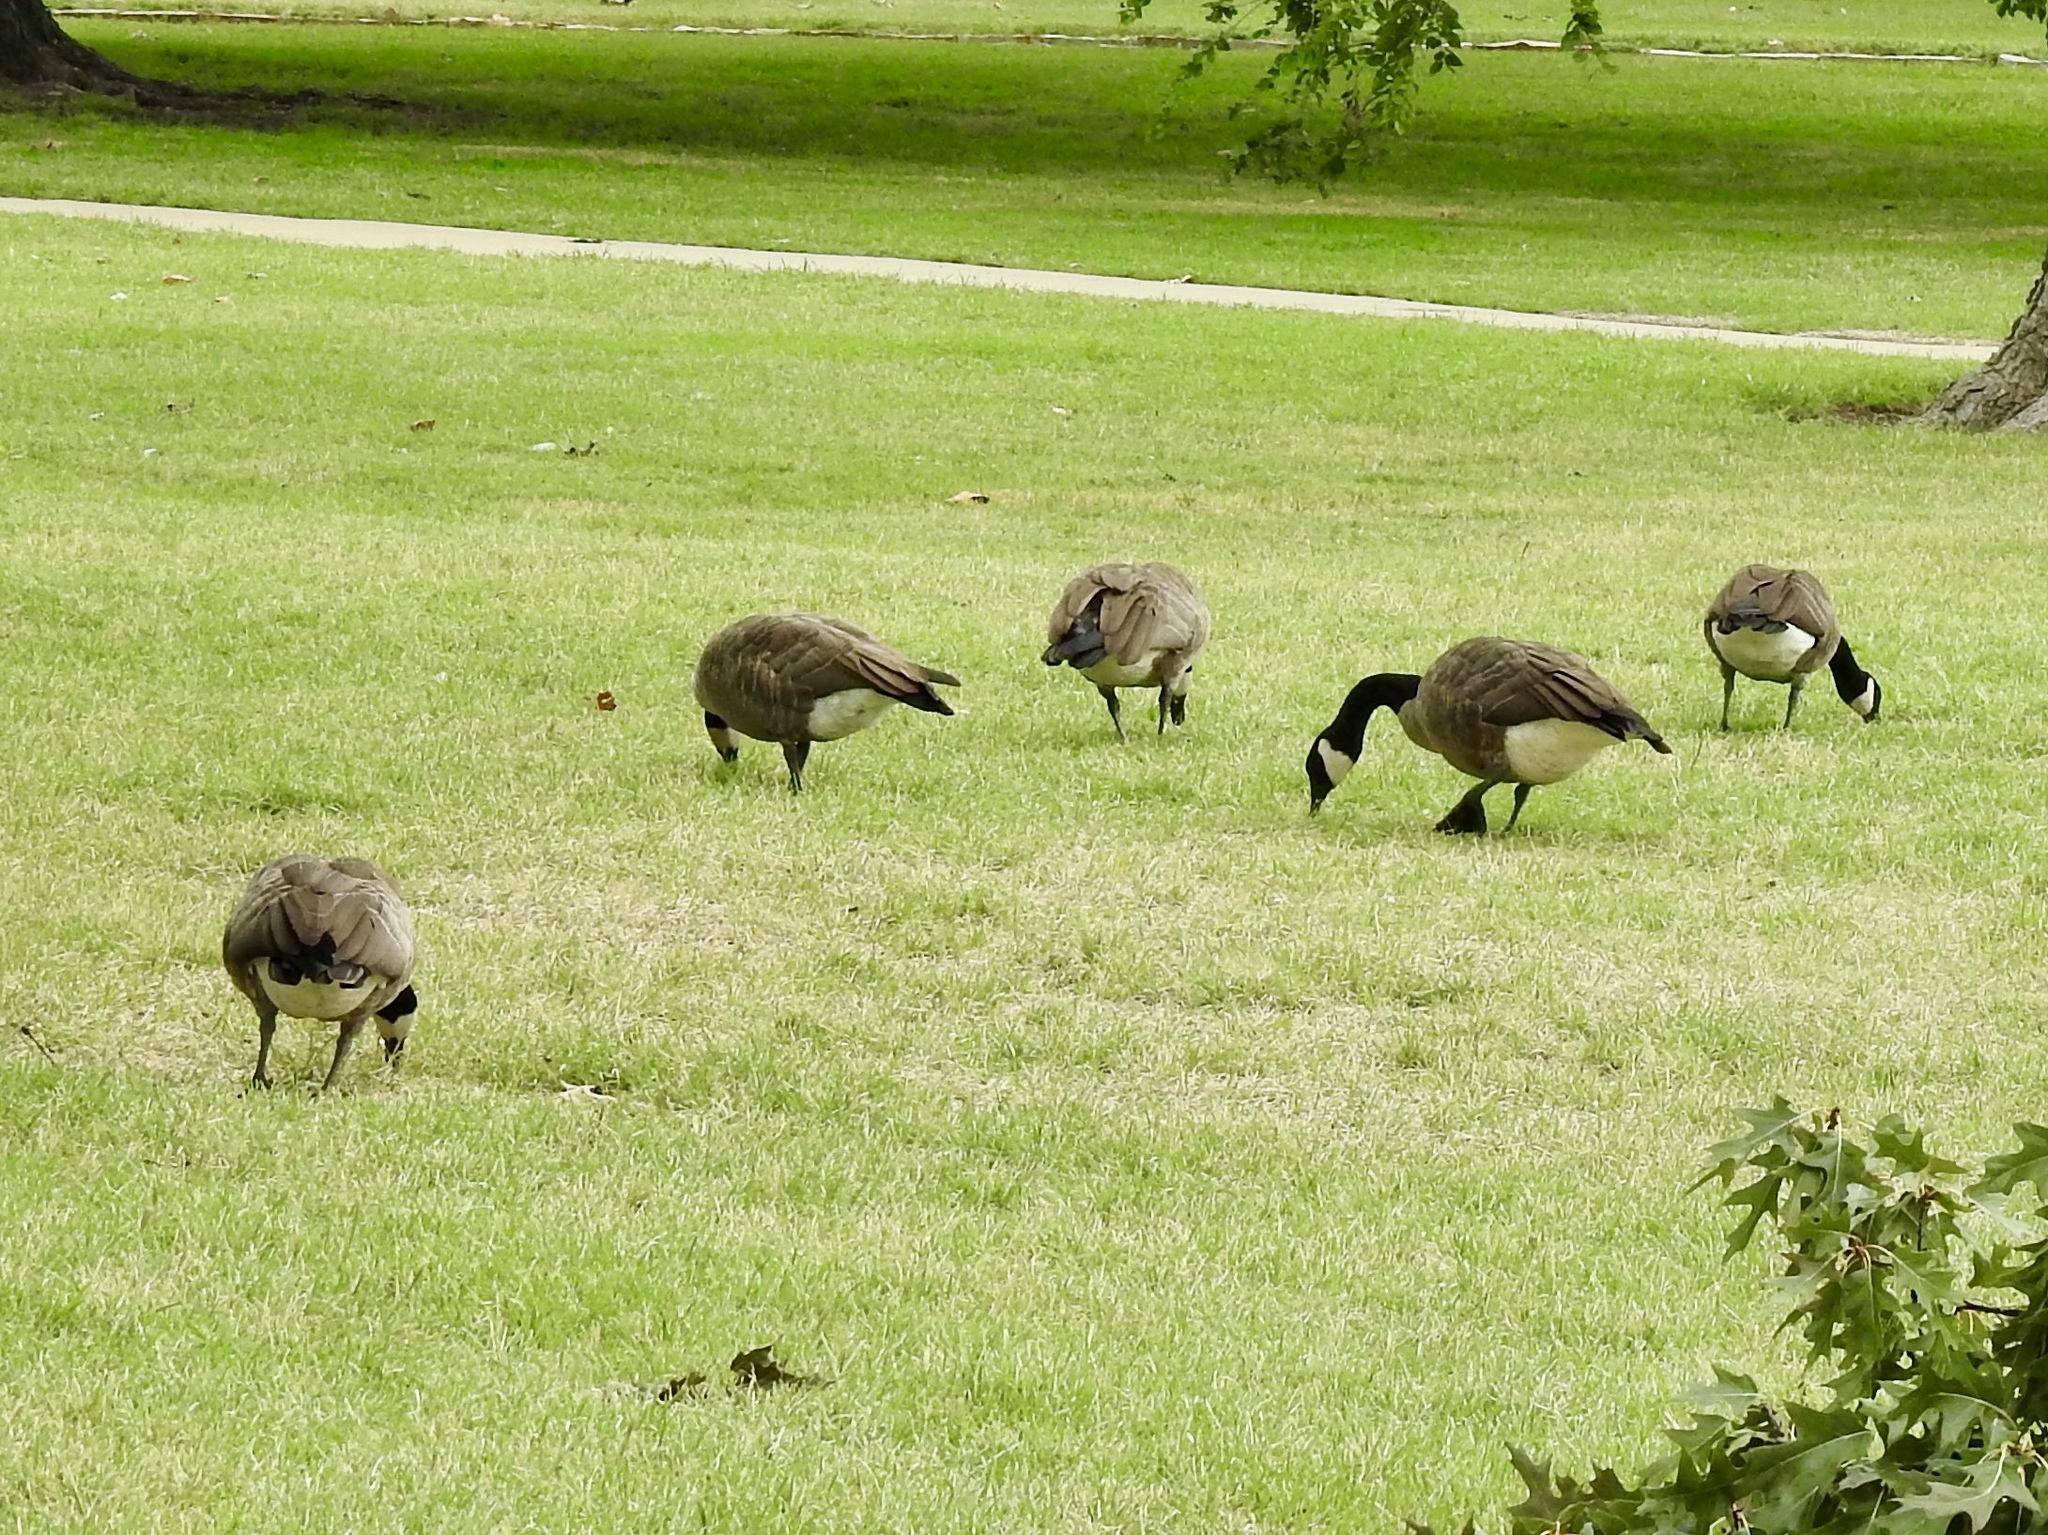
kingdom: Animalia
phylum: Chordata
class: Aves
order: Anseriformes
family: Anatidae
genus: Branta
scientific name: Branta canadensis
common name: Canada goose
